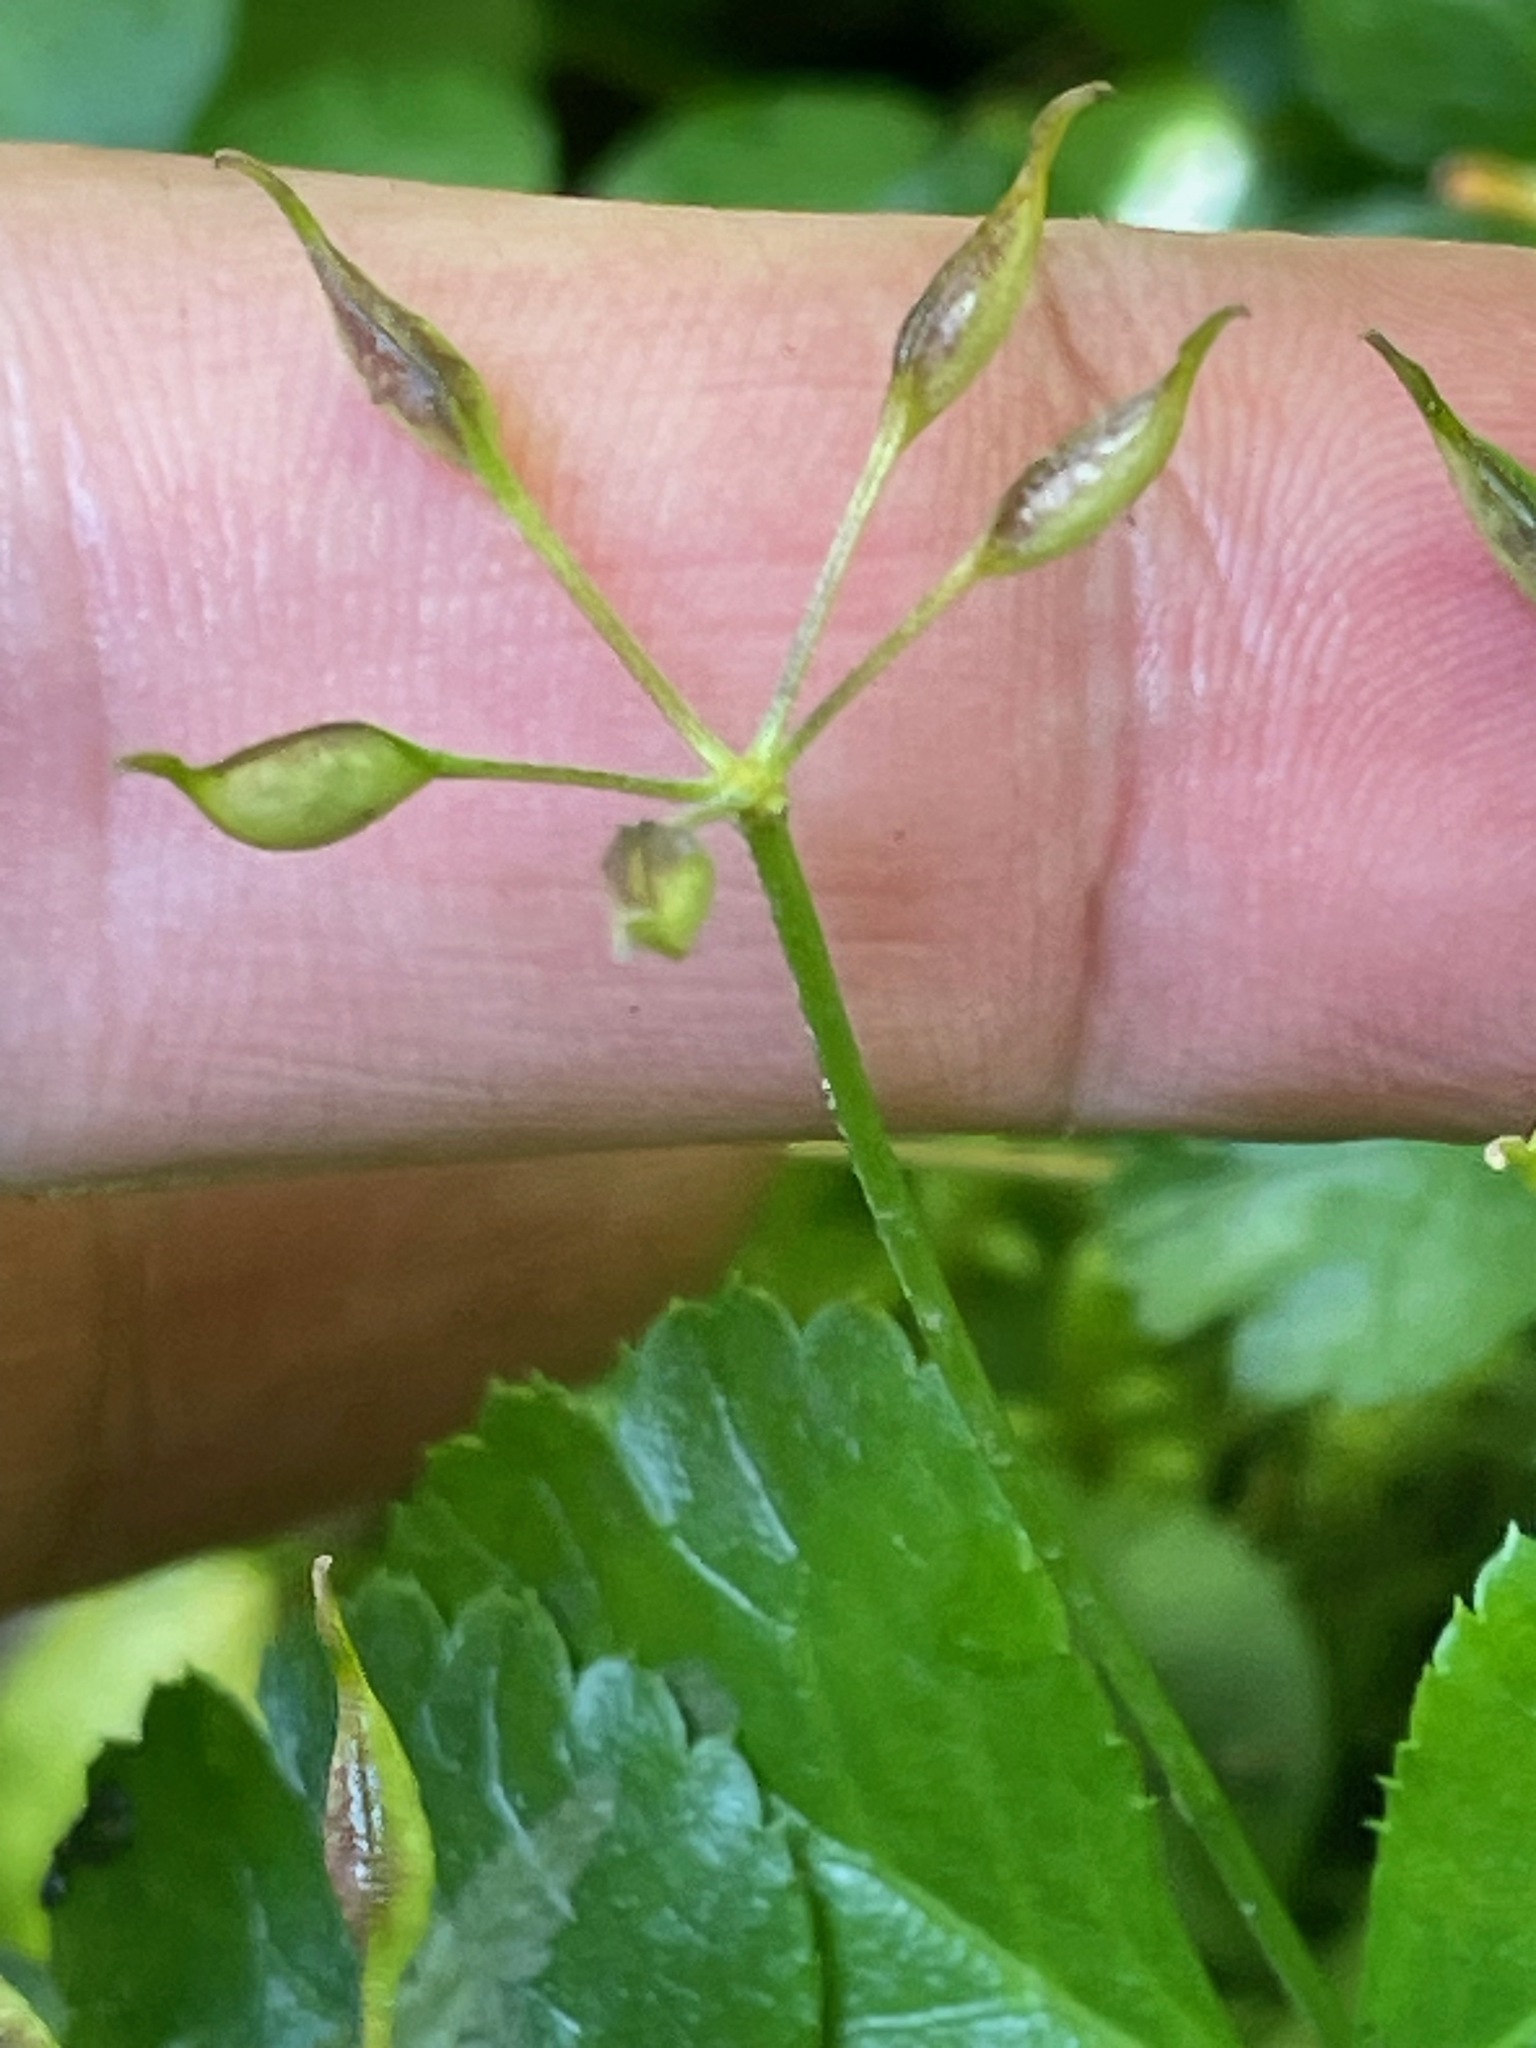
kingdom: Plantae
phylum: Tracheophyta
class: Magnoliopsida
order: Ranunculales
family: Ranunculaceae
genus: Coptis
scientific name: Coptis trifolia
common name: Canker-root
